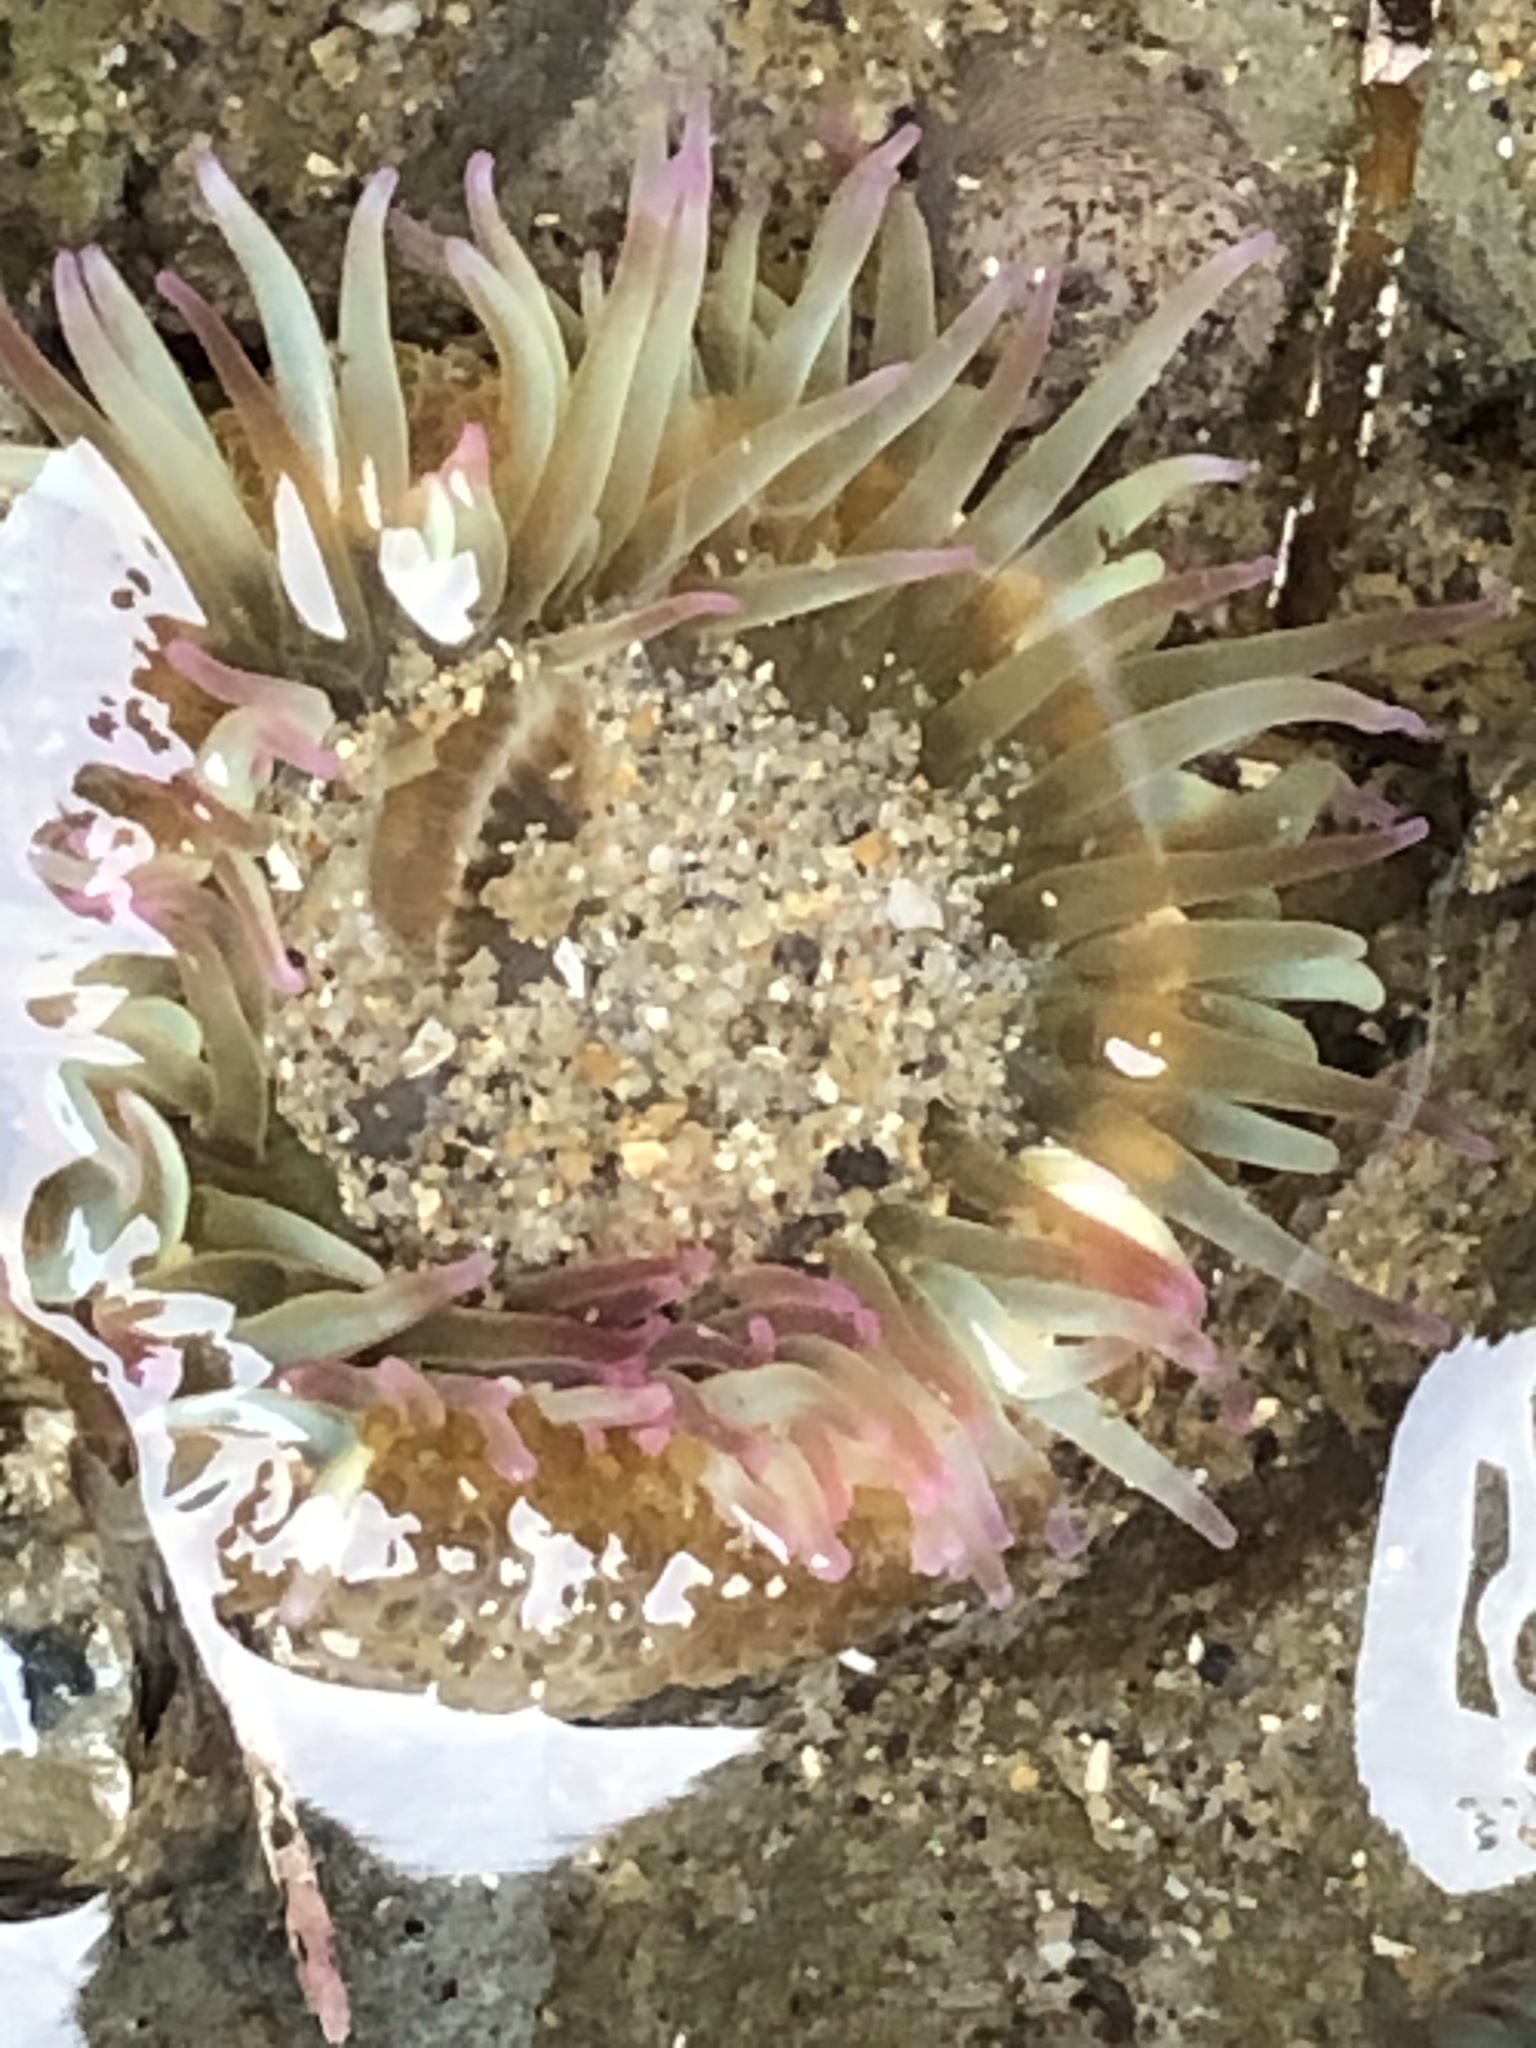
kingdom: Animalia
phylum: Cnidaria
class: Anthozoa
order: Actiniaria
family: Actiniidae
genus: Anthopleura
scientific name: Anthopleura elegantissima
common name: Clonal anemone
